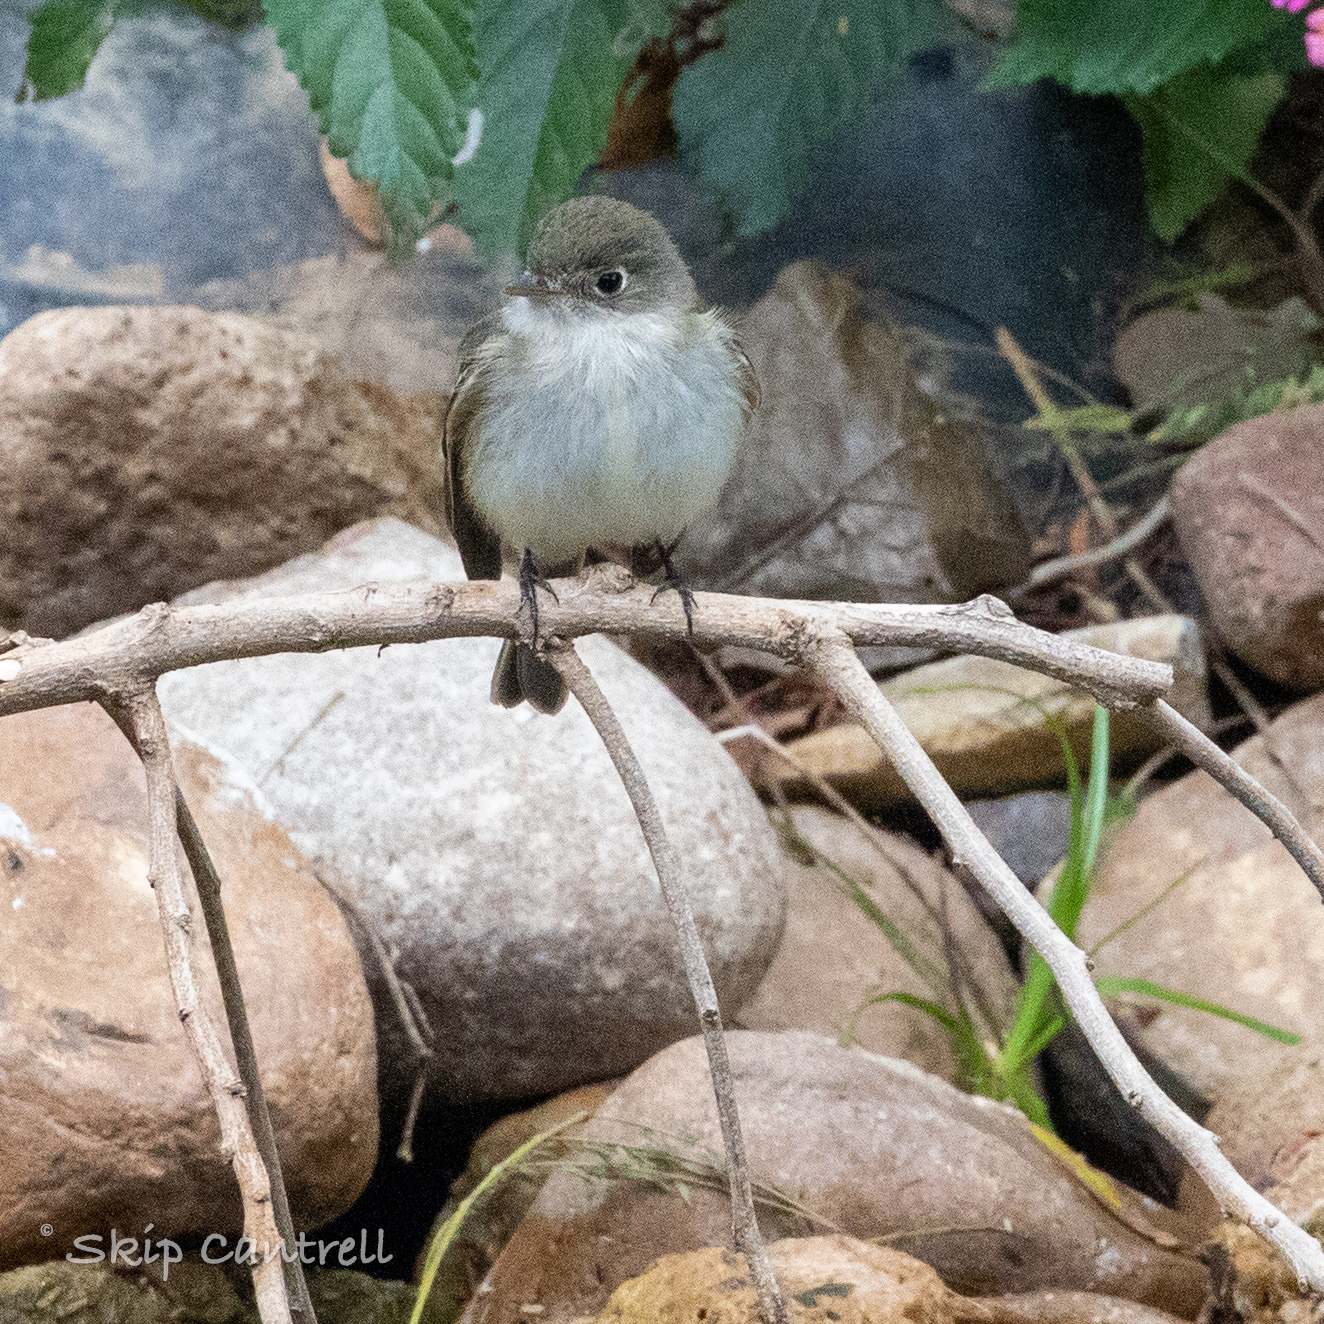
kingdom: Animalia
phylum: Chordata
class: Aves
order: Passeriformes
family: Tyrannidae
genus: Empidonax
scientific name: Empidonax minimus
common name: Least flycatcher
